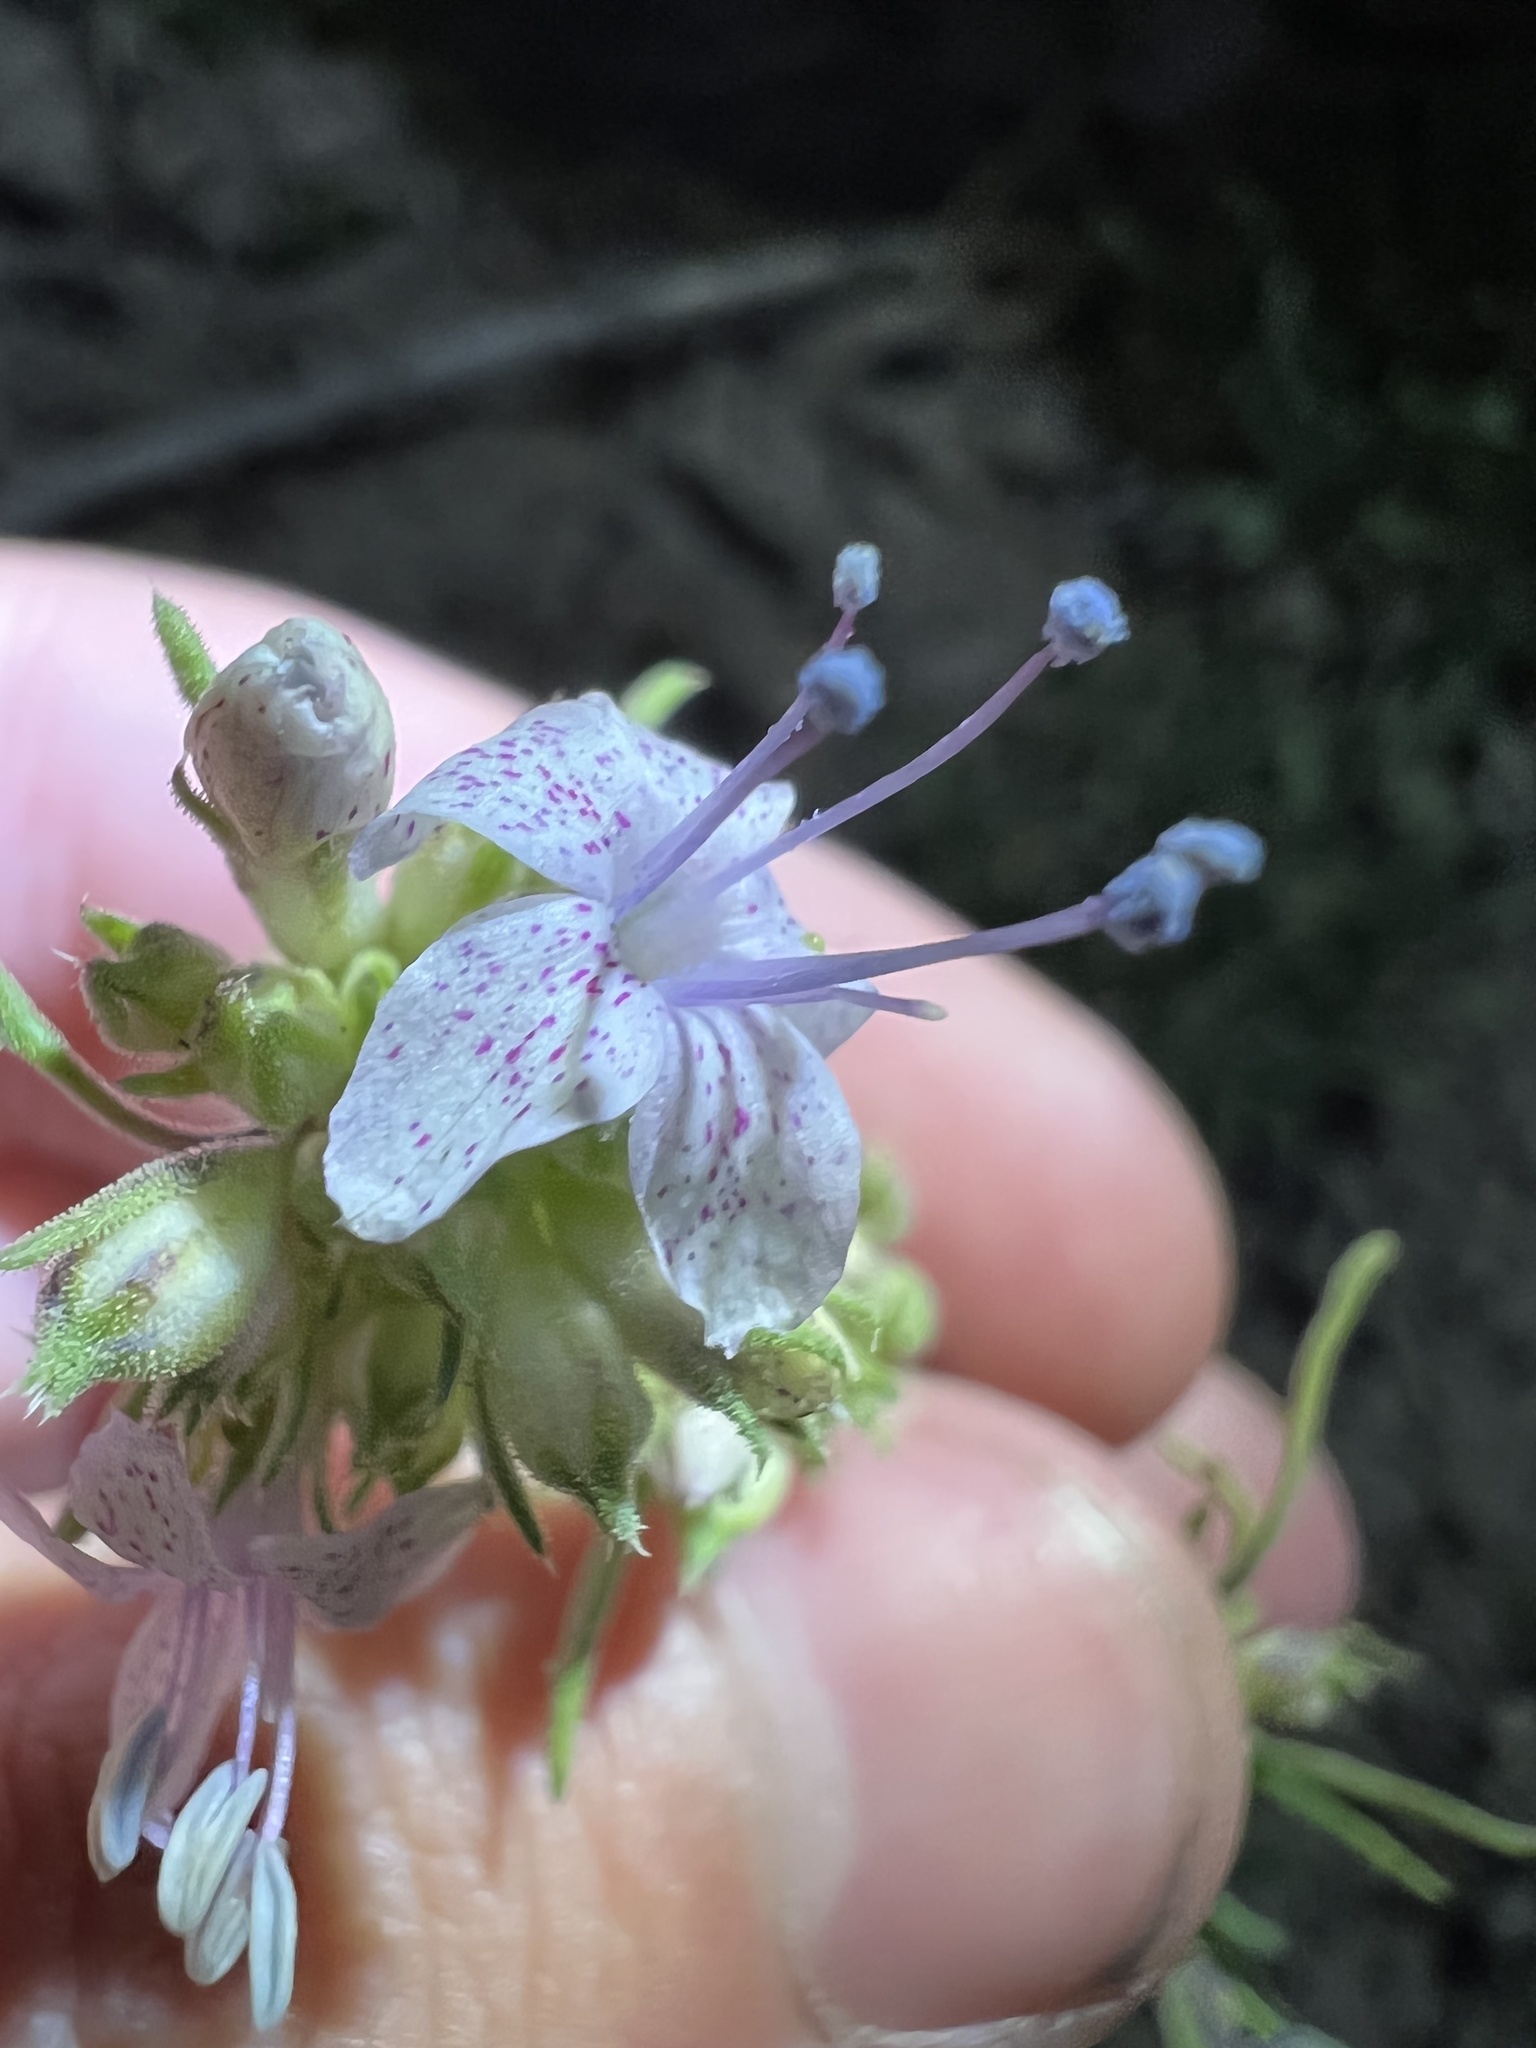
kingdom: Plantae
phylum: Tracheophyta
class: Magnoliopsida
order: Ericales
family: Polemoniaceae
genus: Ipomopsis
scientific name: Ipomopsis polyantha
